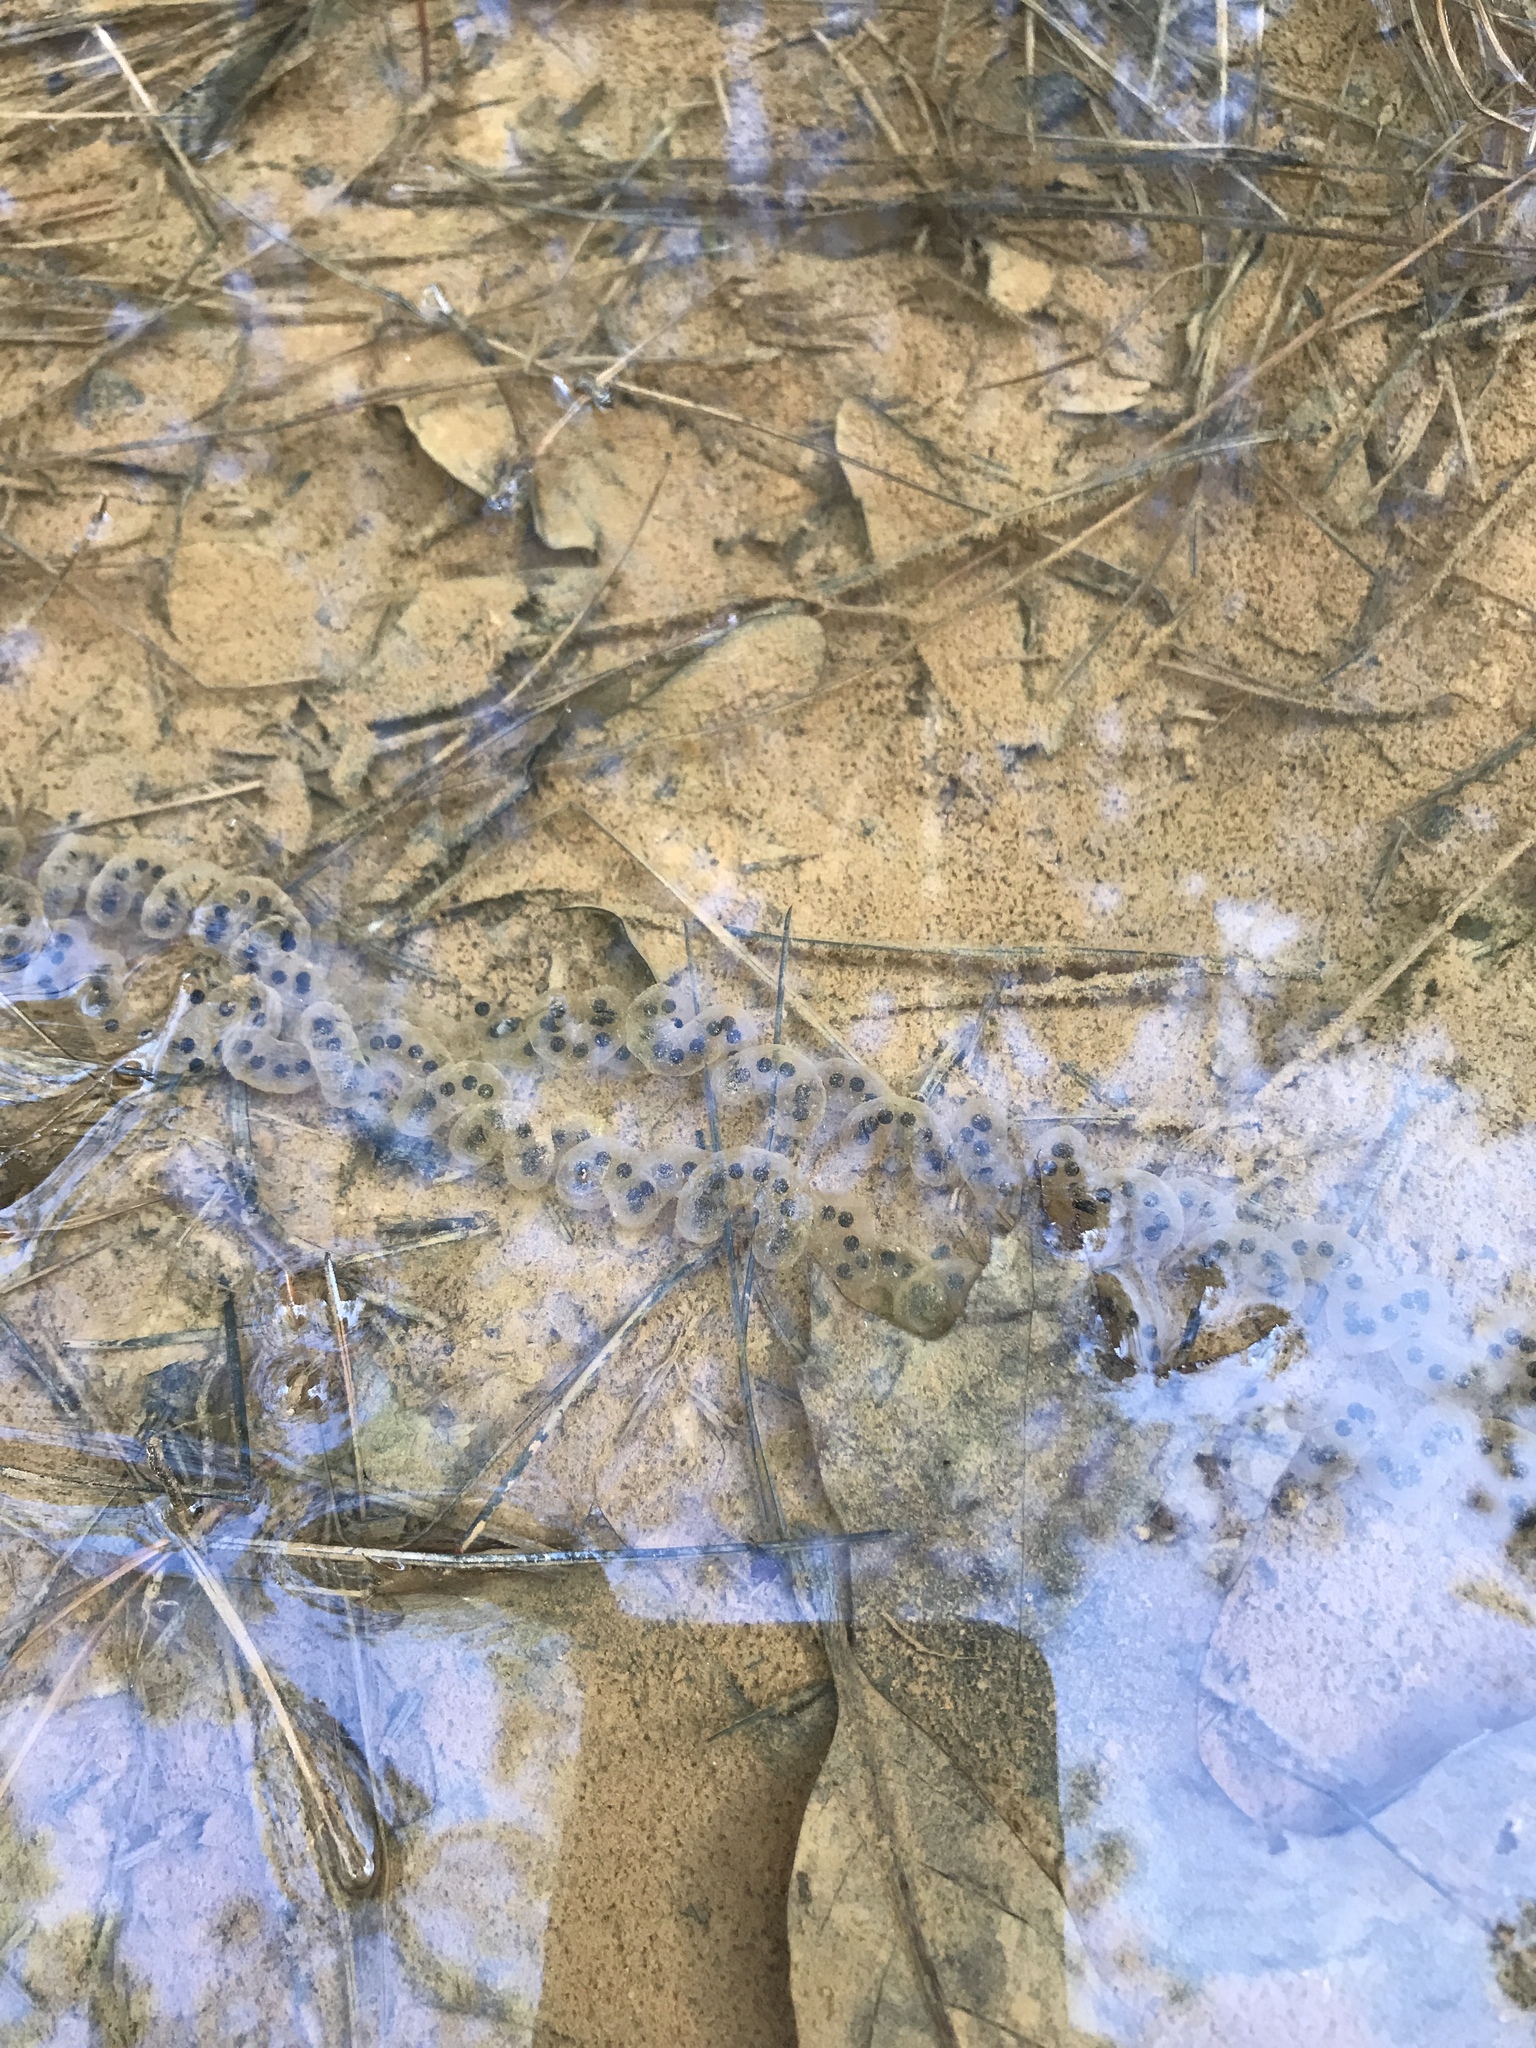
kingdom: Animalia
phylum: Chordata
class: Amphibia
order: Anura
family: Bufonidae
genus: Anaxyrus
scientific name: Anaxyrus americanus
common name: American toad
